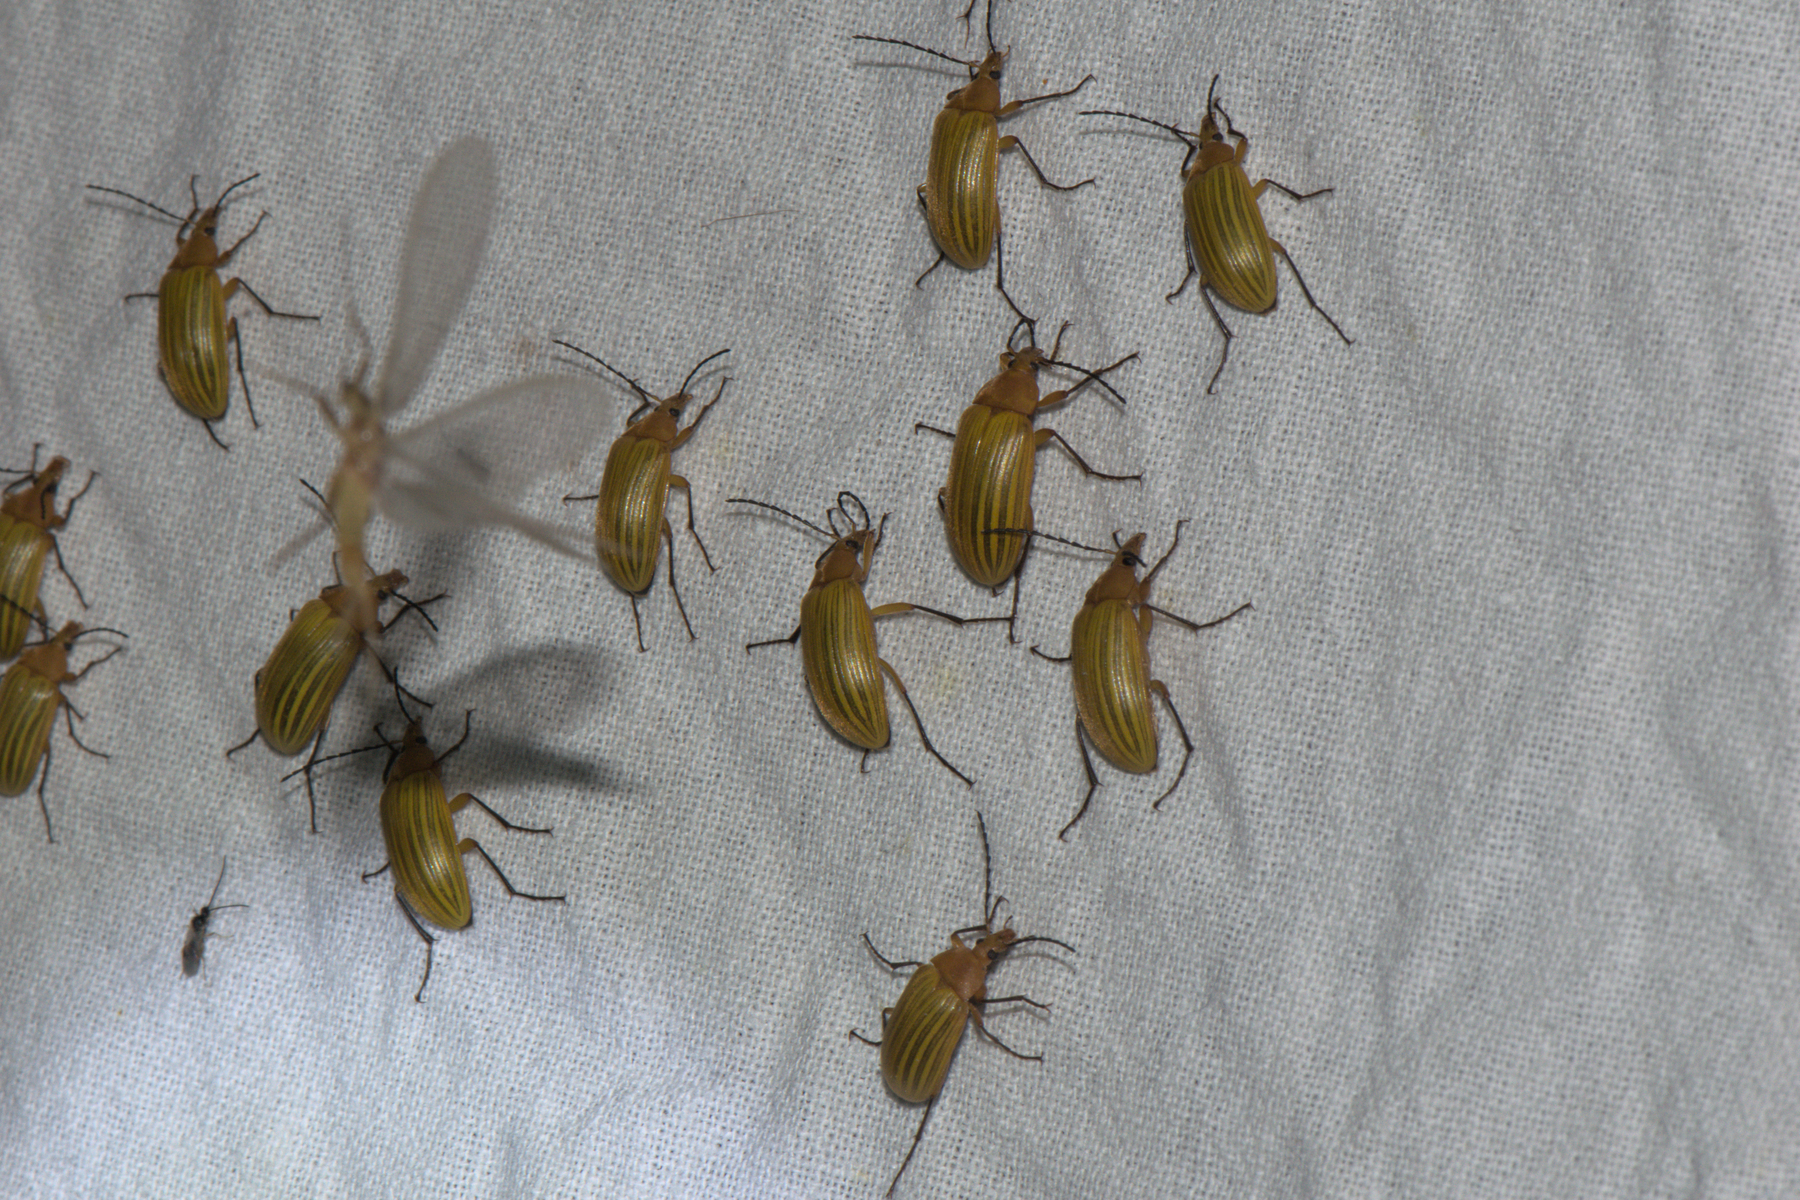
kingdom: Animalia
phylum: Arthropoda
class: Insecta
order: Coleoptera
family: Tenebrionidae
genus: Cistelomorpha
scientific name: Cistelomorpha
